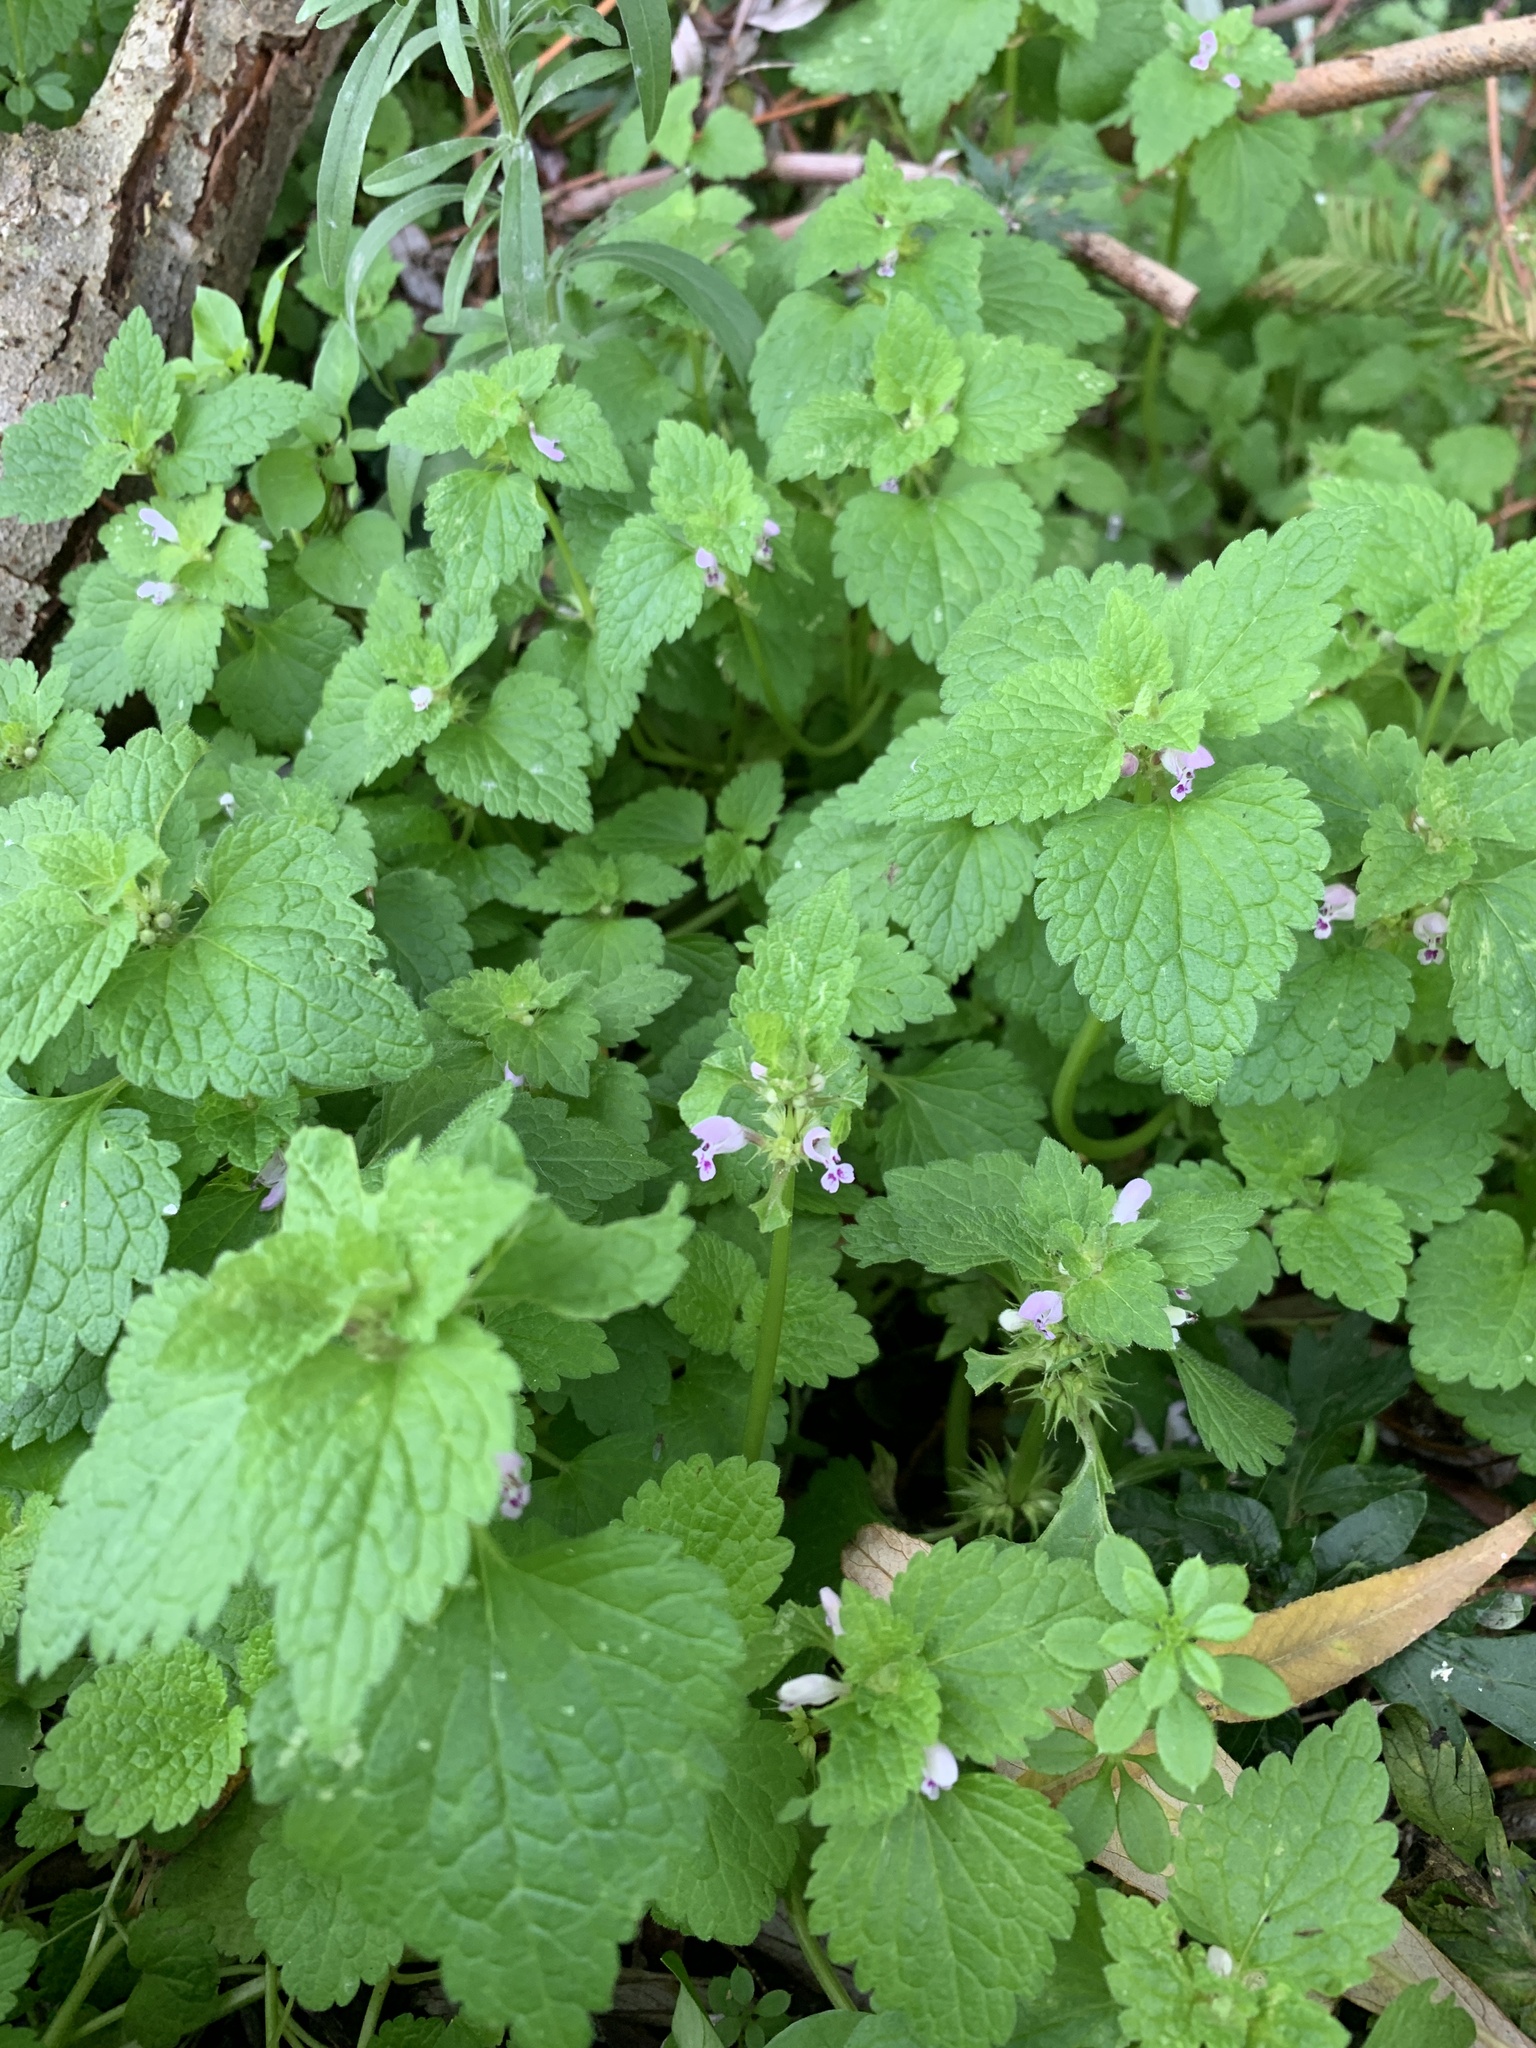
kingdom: Plantae
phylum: Tracheophyta
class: Magnoliopsida
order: Lamiales
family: Lamiaceae
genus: Lamium
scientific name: Lamium purpureum
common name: Red dead-nettle
